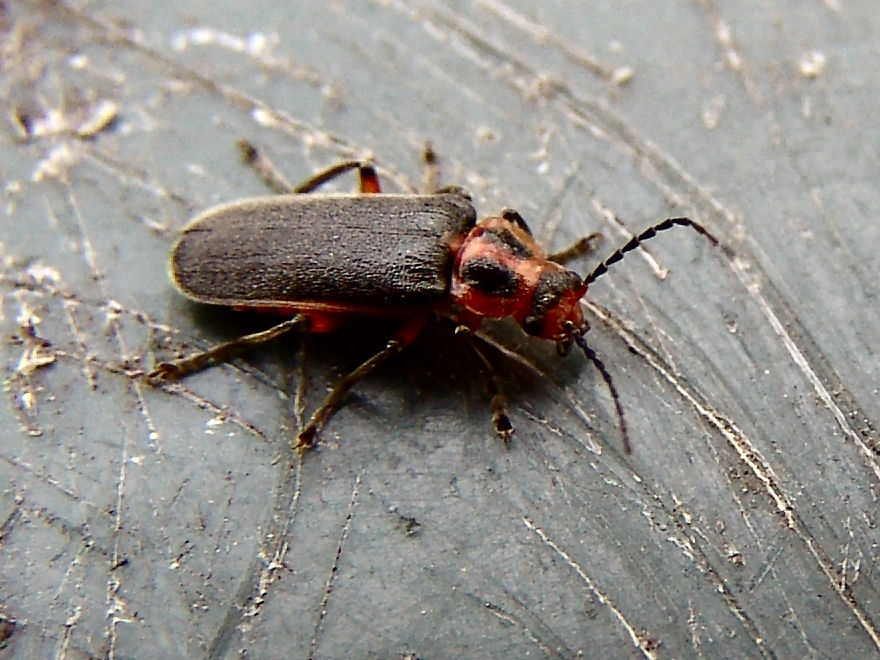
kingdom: Animalia
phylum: Arthropoda
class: Insecta
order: Coleoptera
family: Cantharidae
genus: Atalantycha
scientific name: Atalantycha bilineata
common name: Two-lined leatherwing
